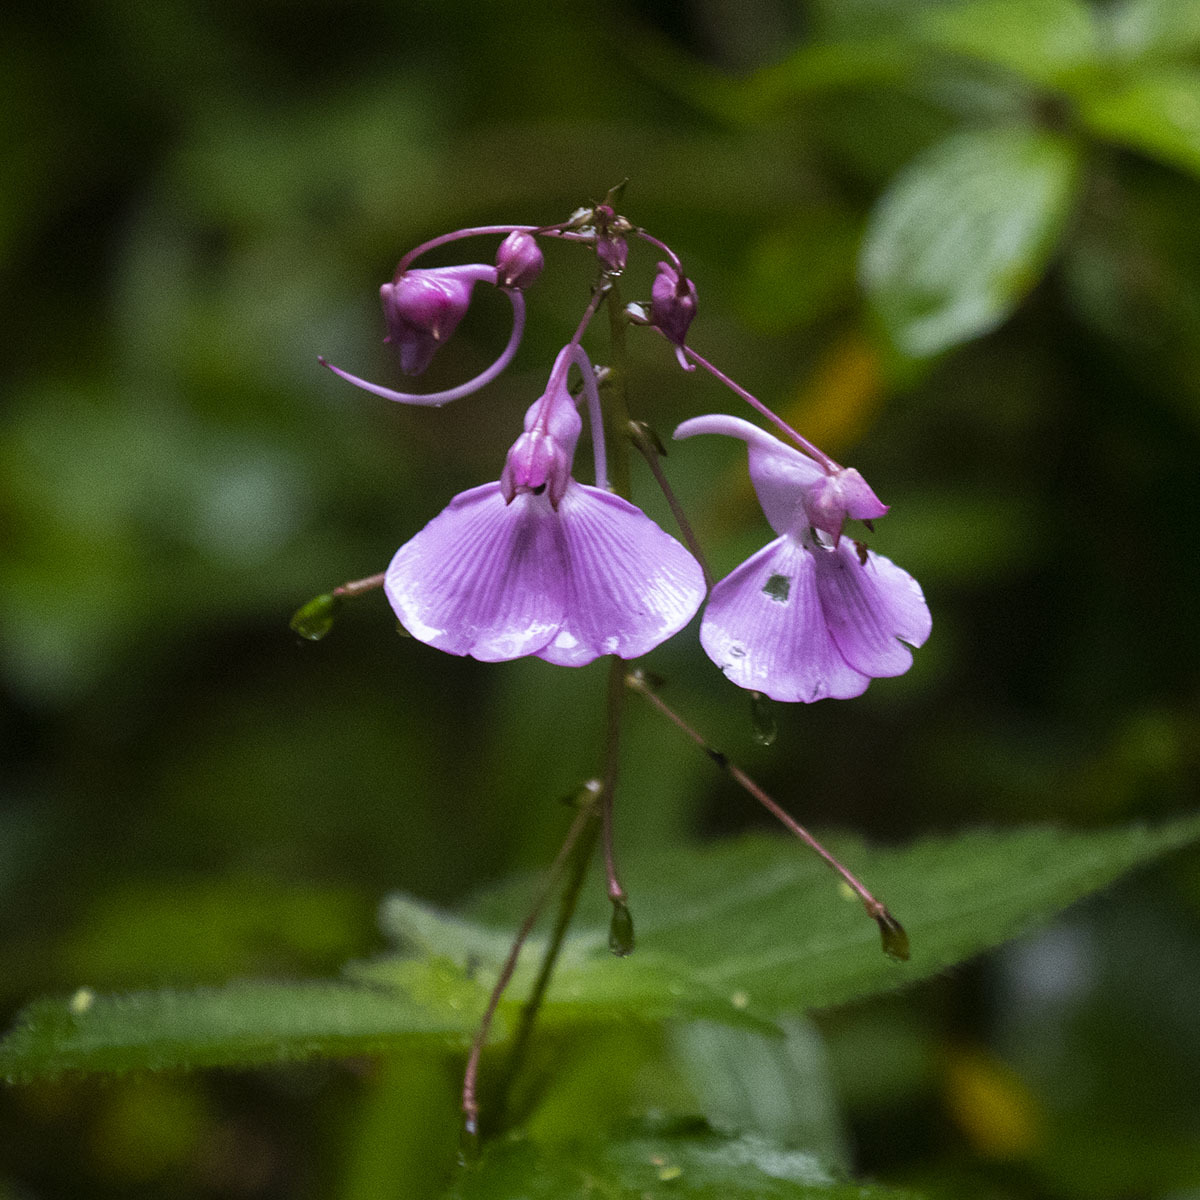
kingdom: Plantae
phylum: Tracheophyta
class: Magnoliopsida
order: Ericales
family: Balsaminaceae
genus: Impatiens
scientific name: Impatiens maculata
